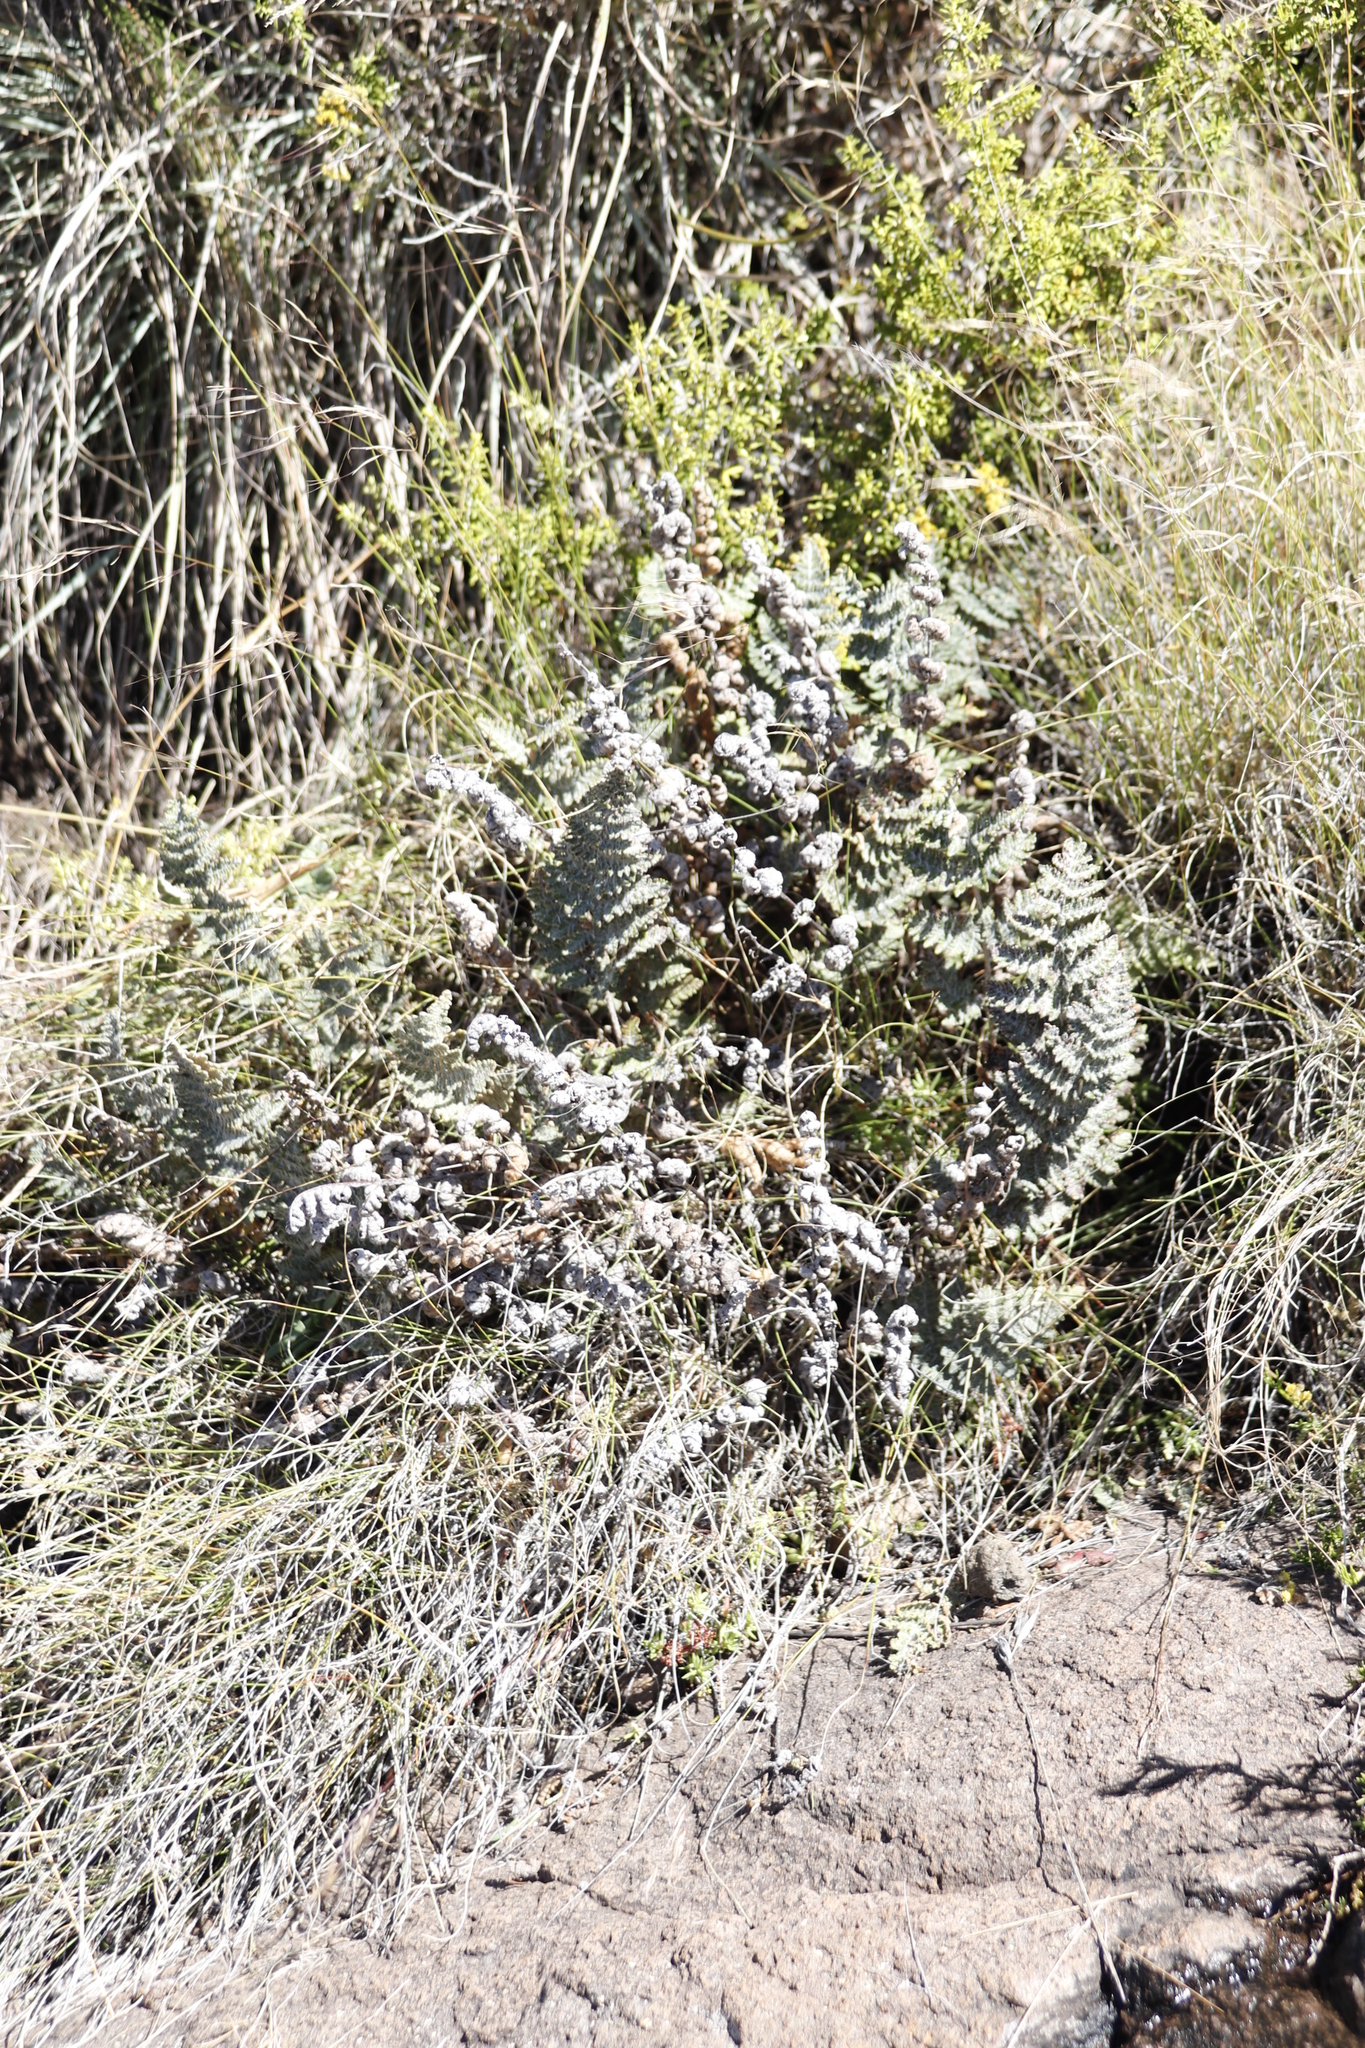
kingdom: Plantae
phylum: Tracheophyta
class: Polypodiopsida
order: Polypodiales
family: Pteridaceae
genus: Cheilanthes
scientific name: Cheilanthes eckloniana
